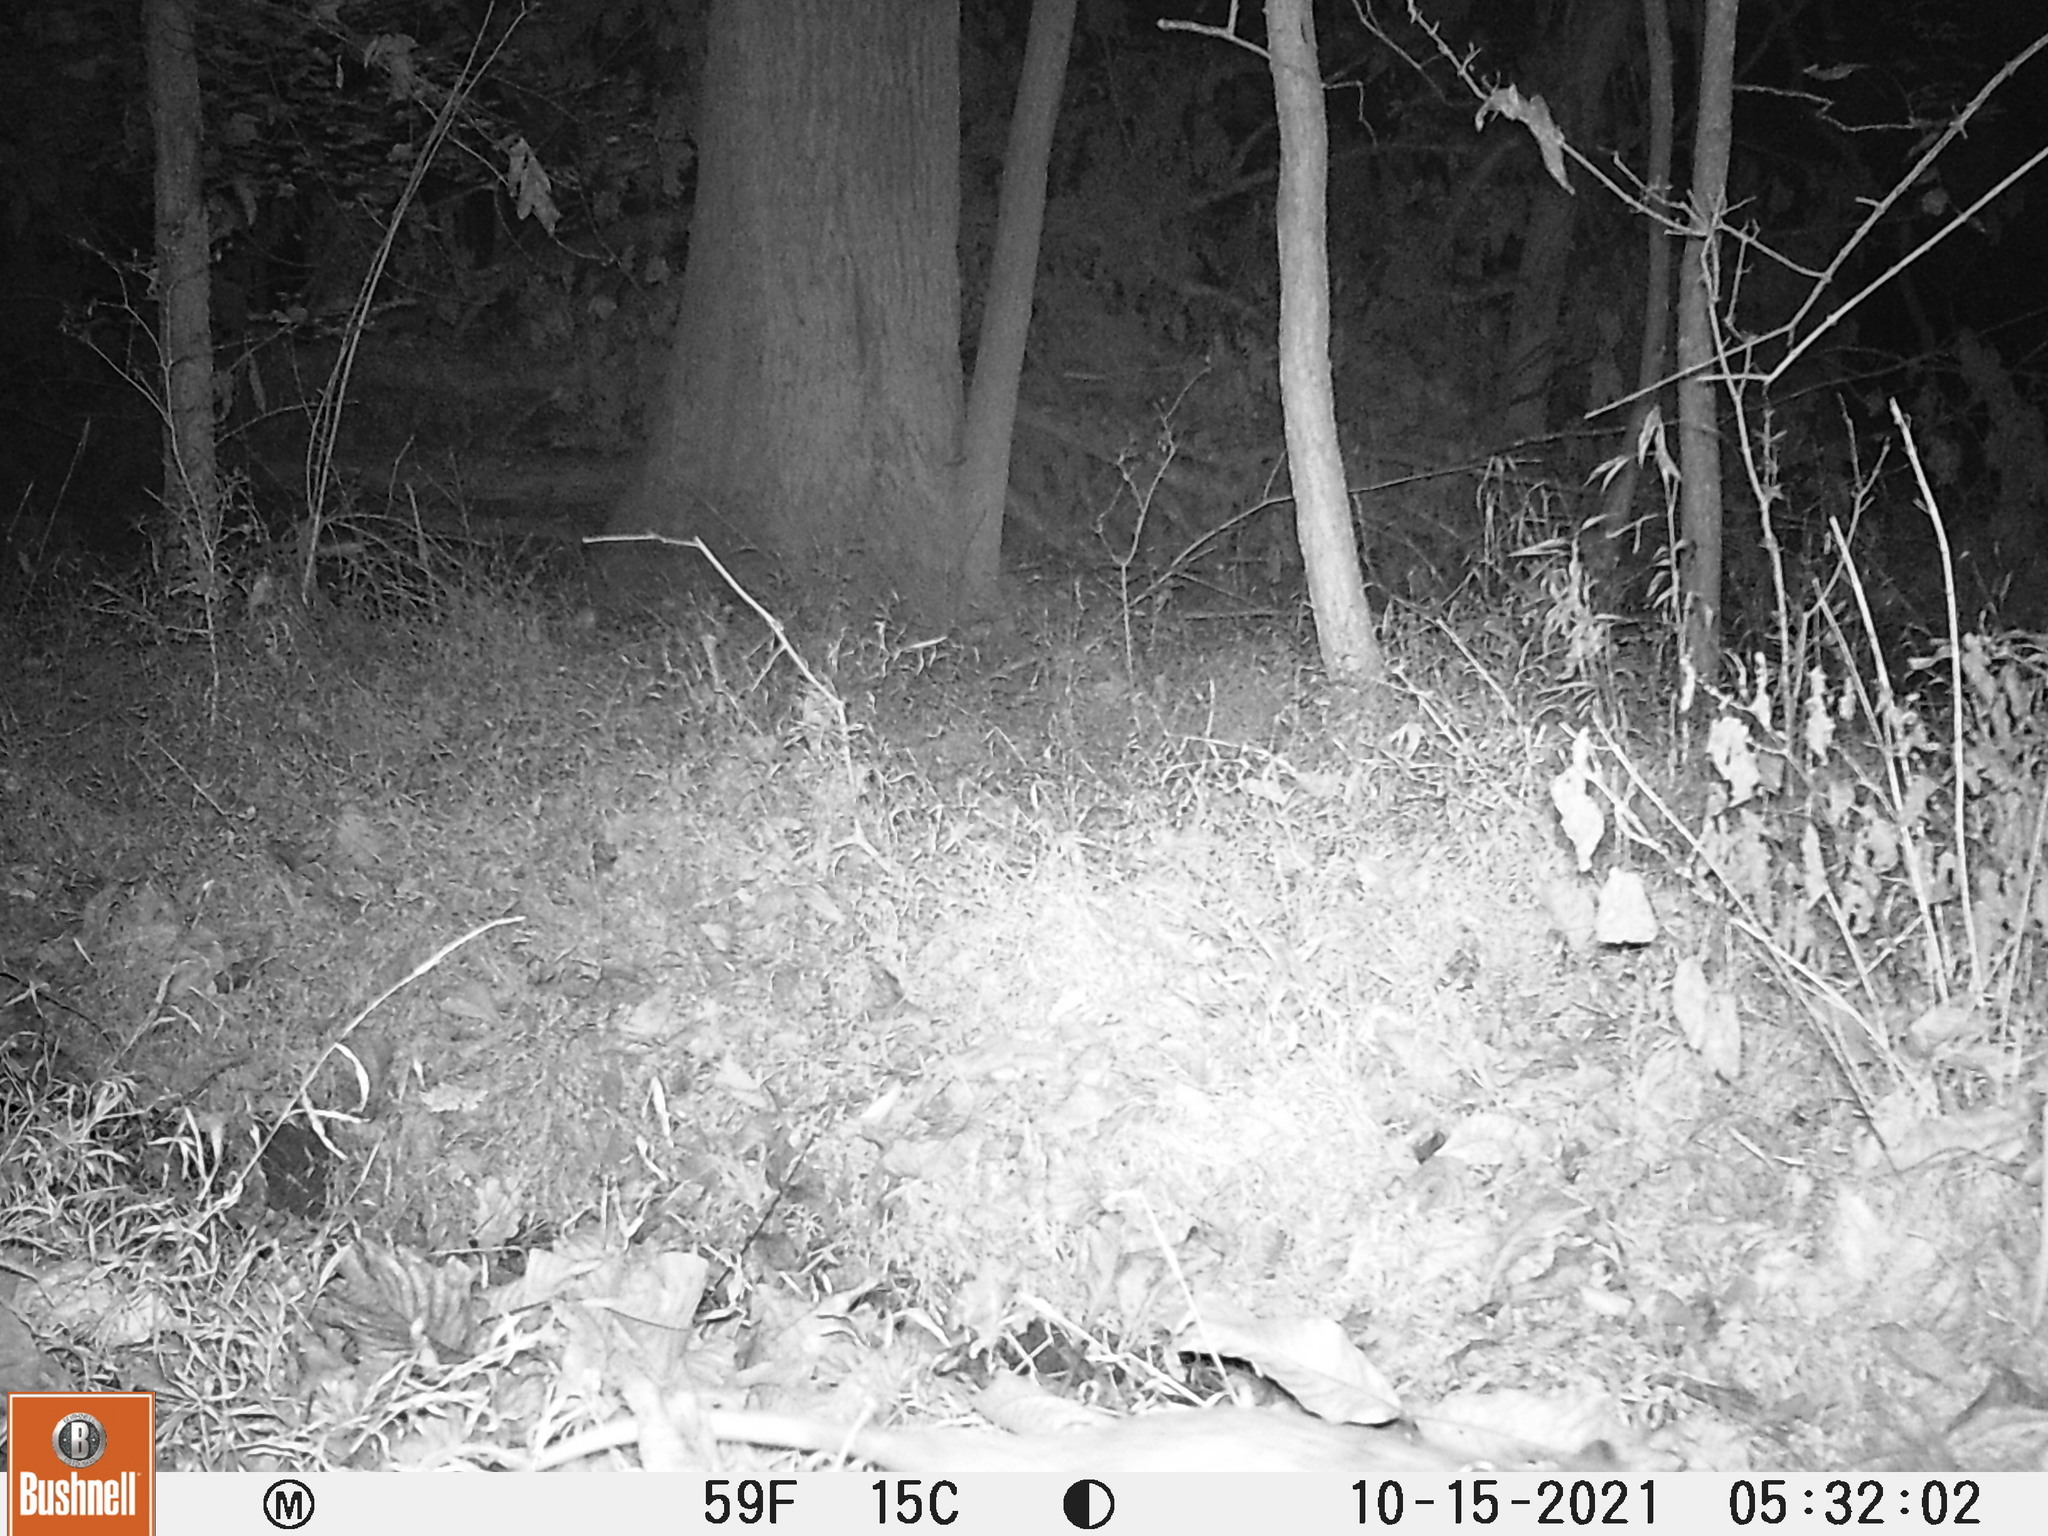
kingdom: Animalia
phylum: Chordata
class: Mammalia
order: Didelphimorphia
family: Didelphidae
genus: Didelphis
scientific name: Didelphis virginiana
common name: Virginia opossum
